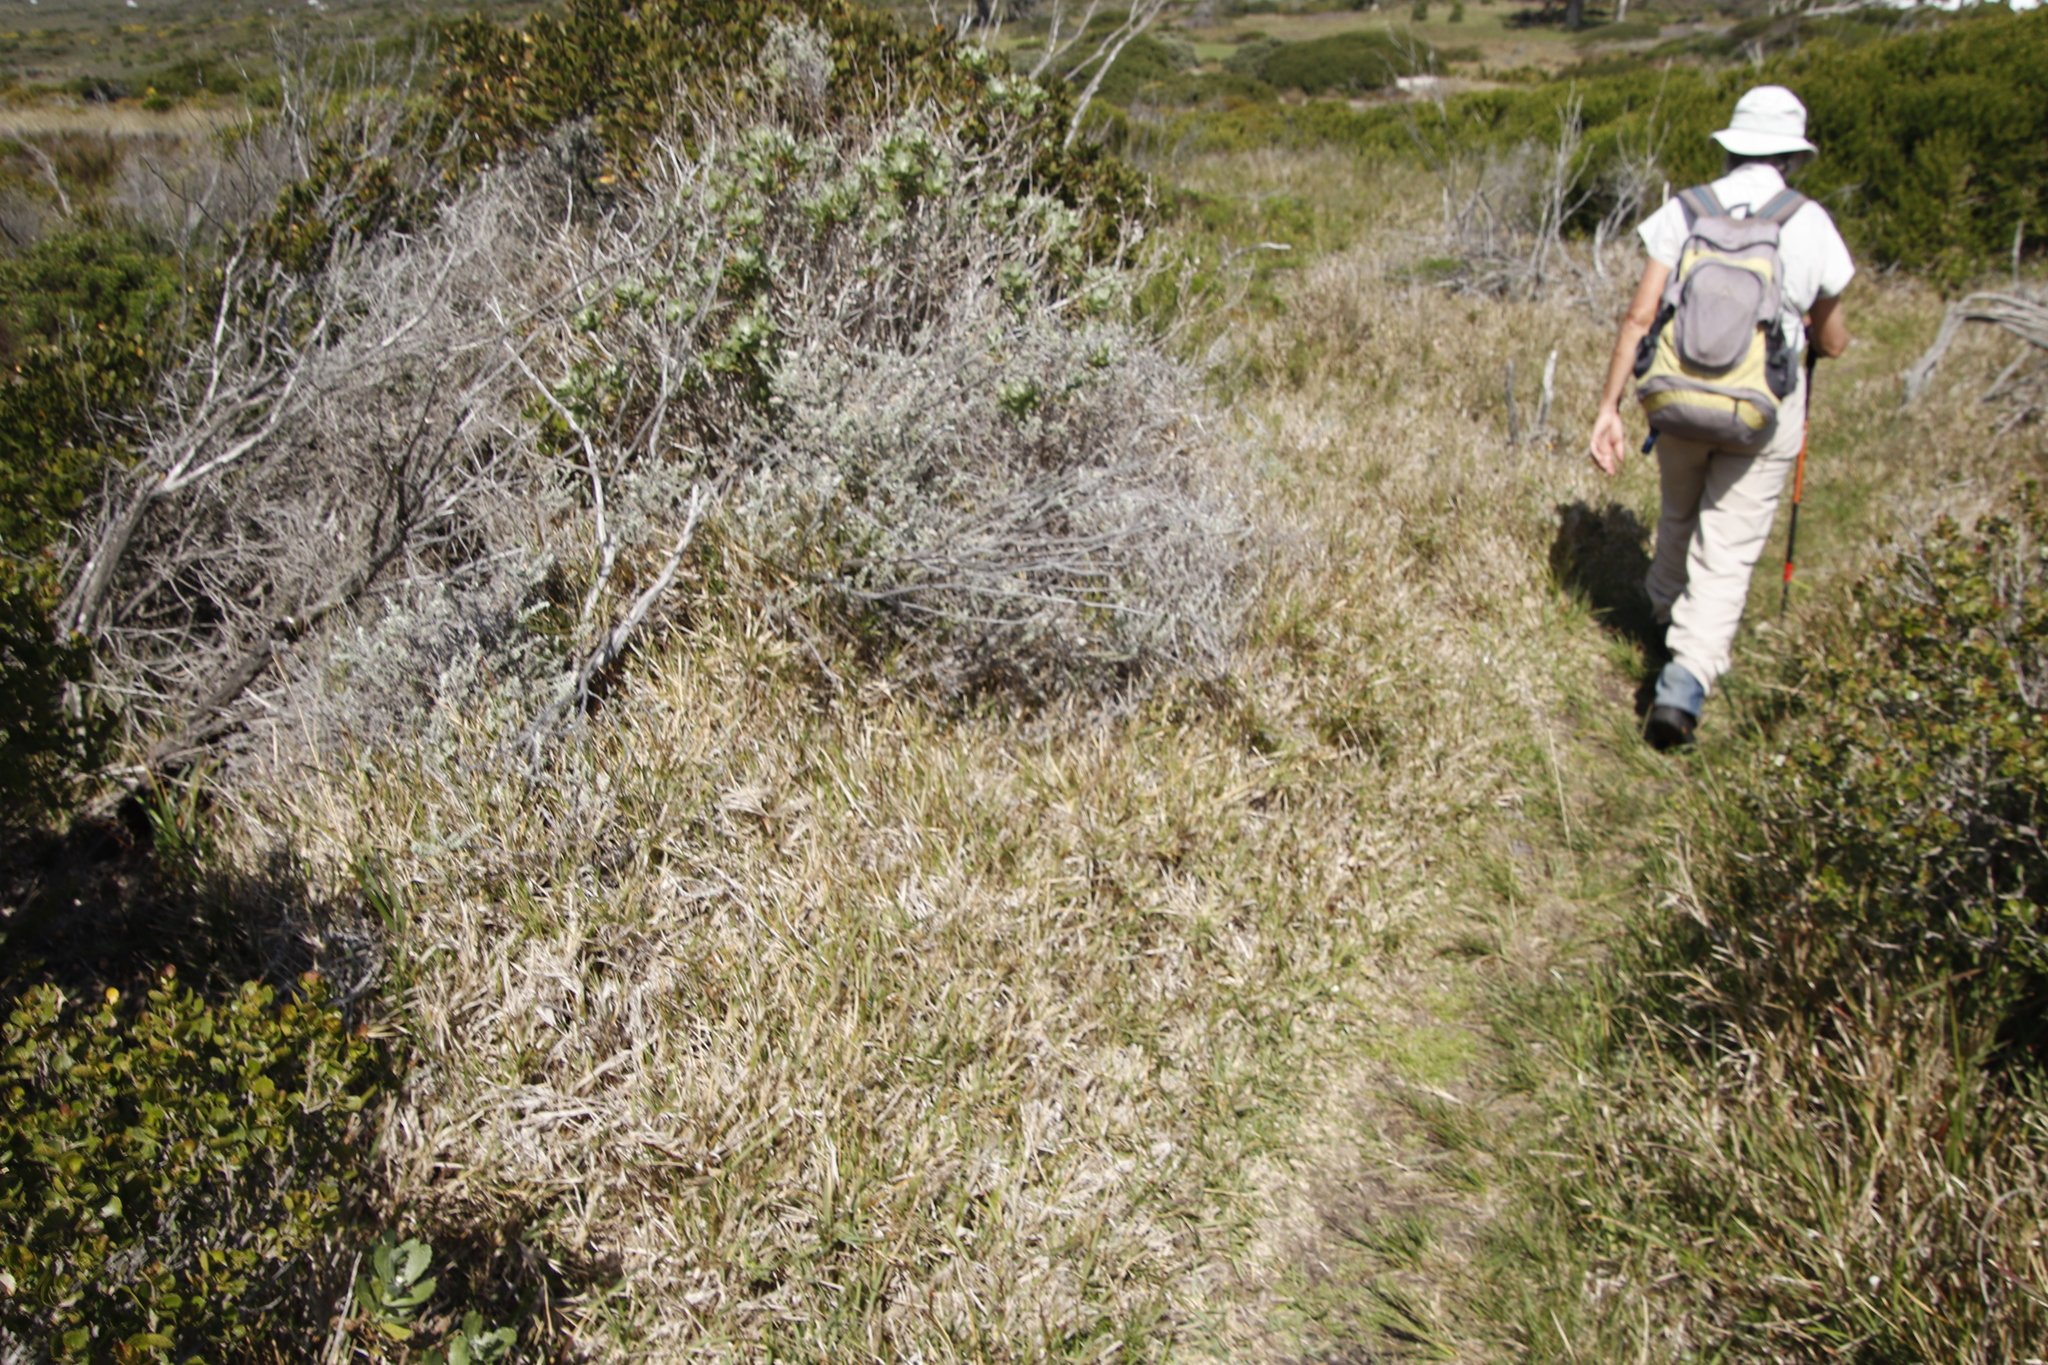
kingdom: Plantae
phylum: Tracheophyta
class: Liliopsida
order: Poales
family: Poaceae
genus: Stenotaphrum
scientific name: Stenotaphrum secundatum
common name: St. augustine grass
